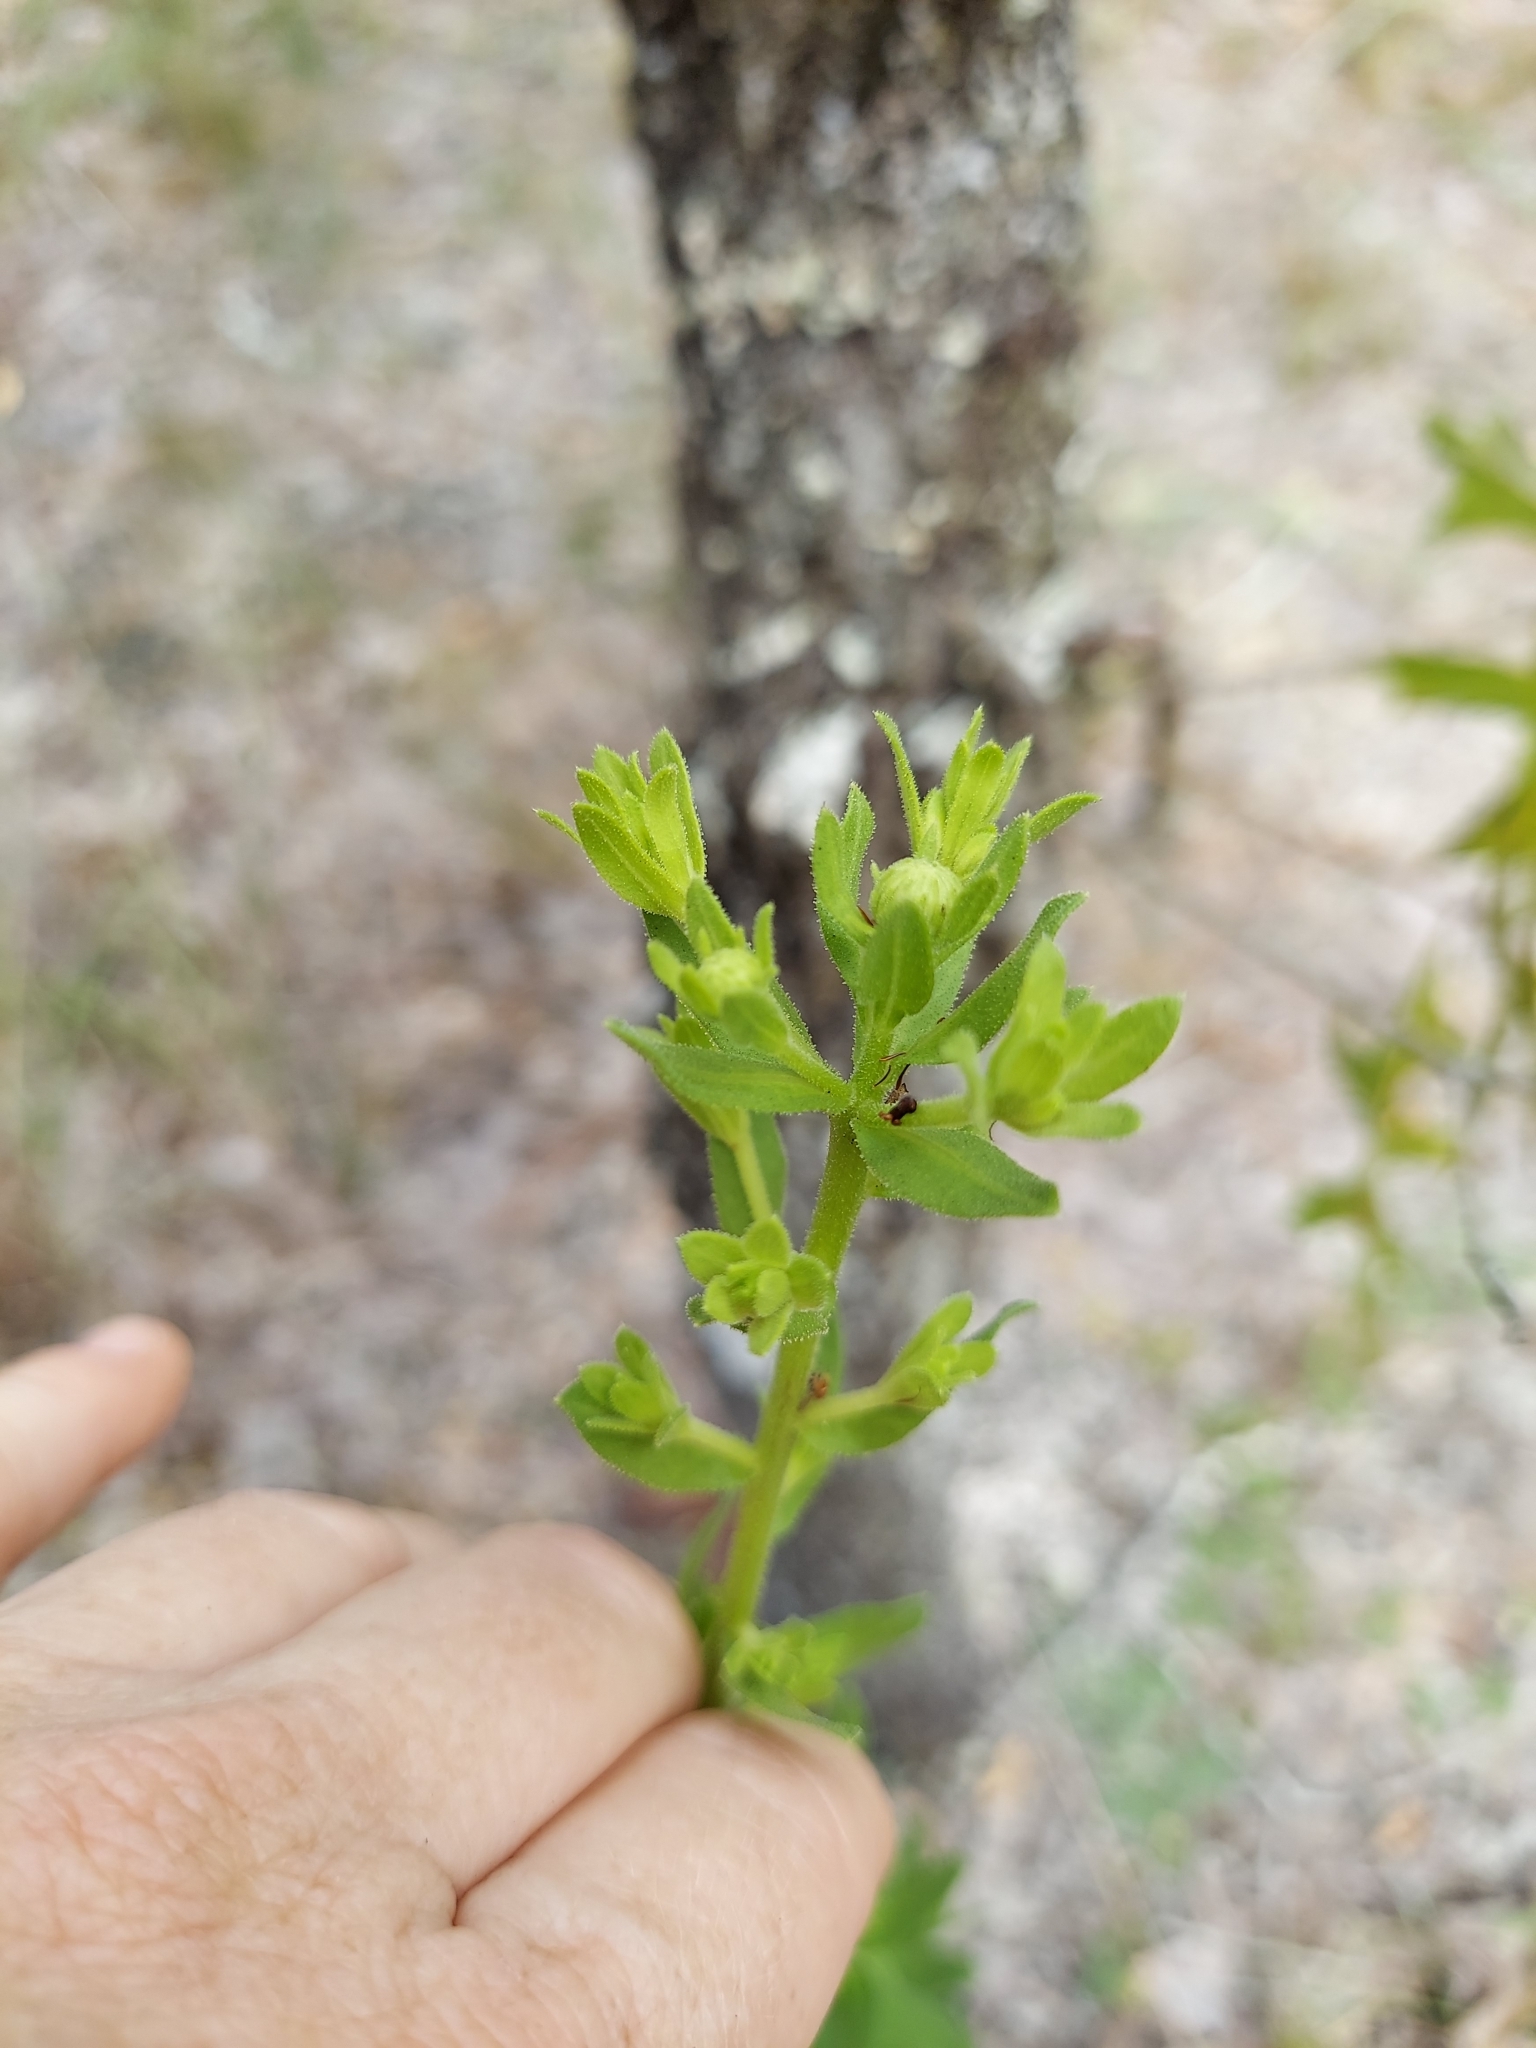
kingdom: Plantae
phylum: Tracheophyta
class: Magnoliopsida
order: Asterales
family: Asteraceae
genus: Chrysopsis
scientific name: Chrysopsis scabrella
